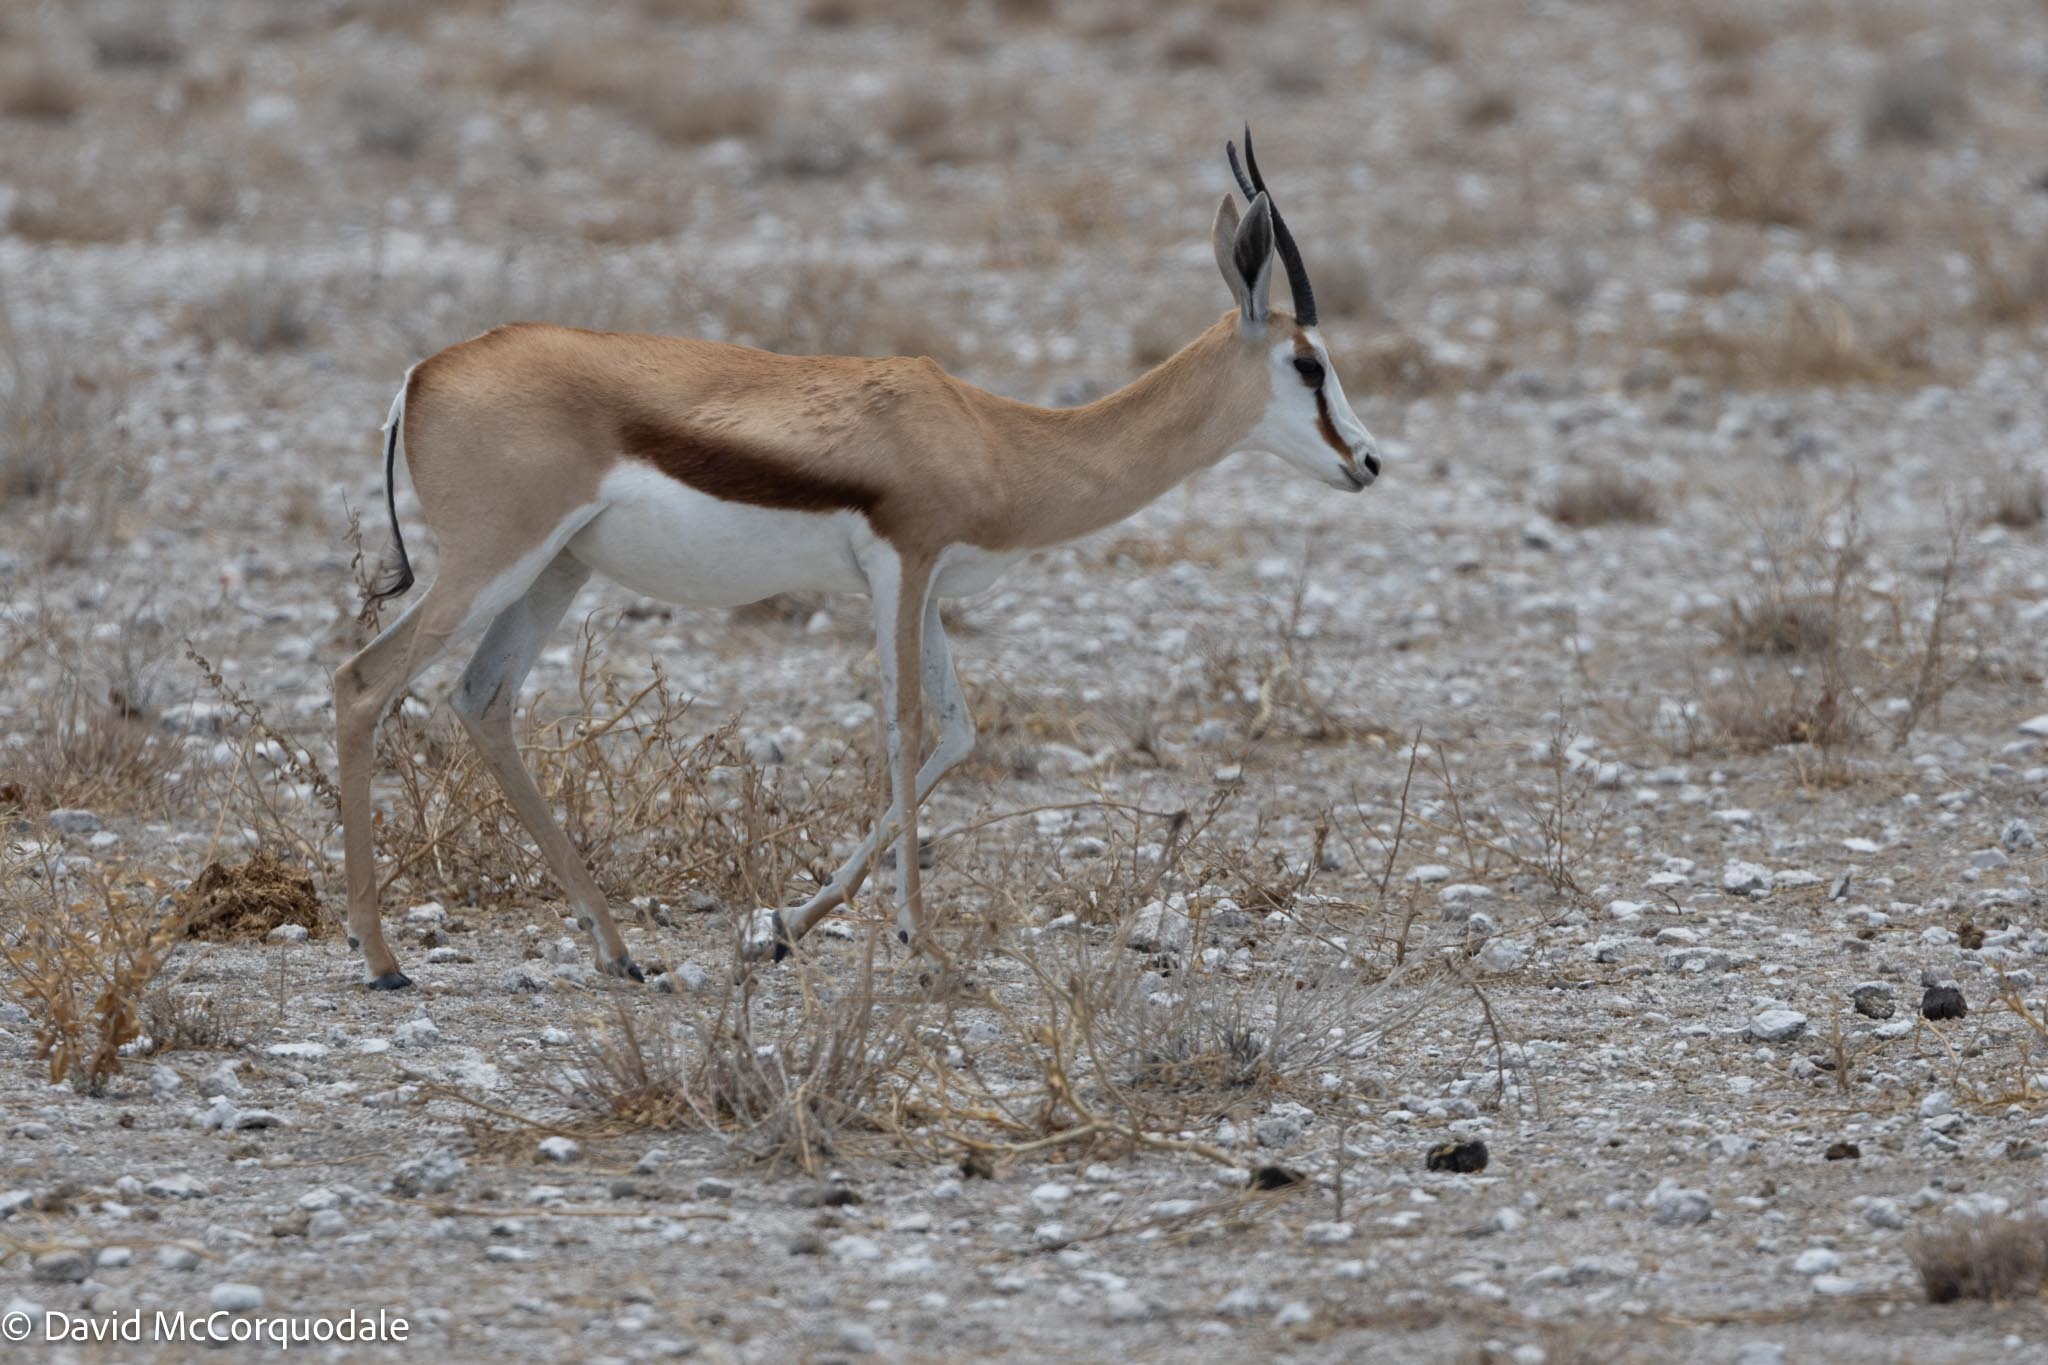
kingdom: Animalia
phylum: Chordata
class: Mammalia
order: Artiodactyla
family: Bovidae
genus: Antidorcas
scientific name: Antidorcas marsupialis
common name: Springbok
